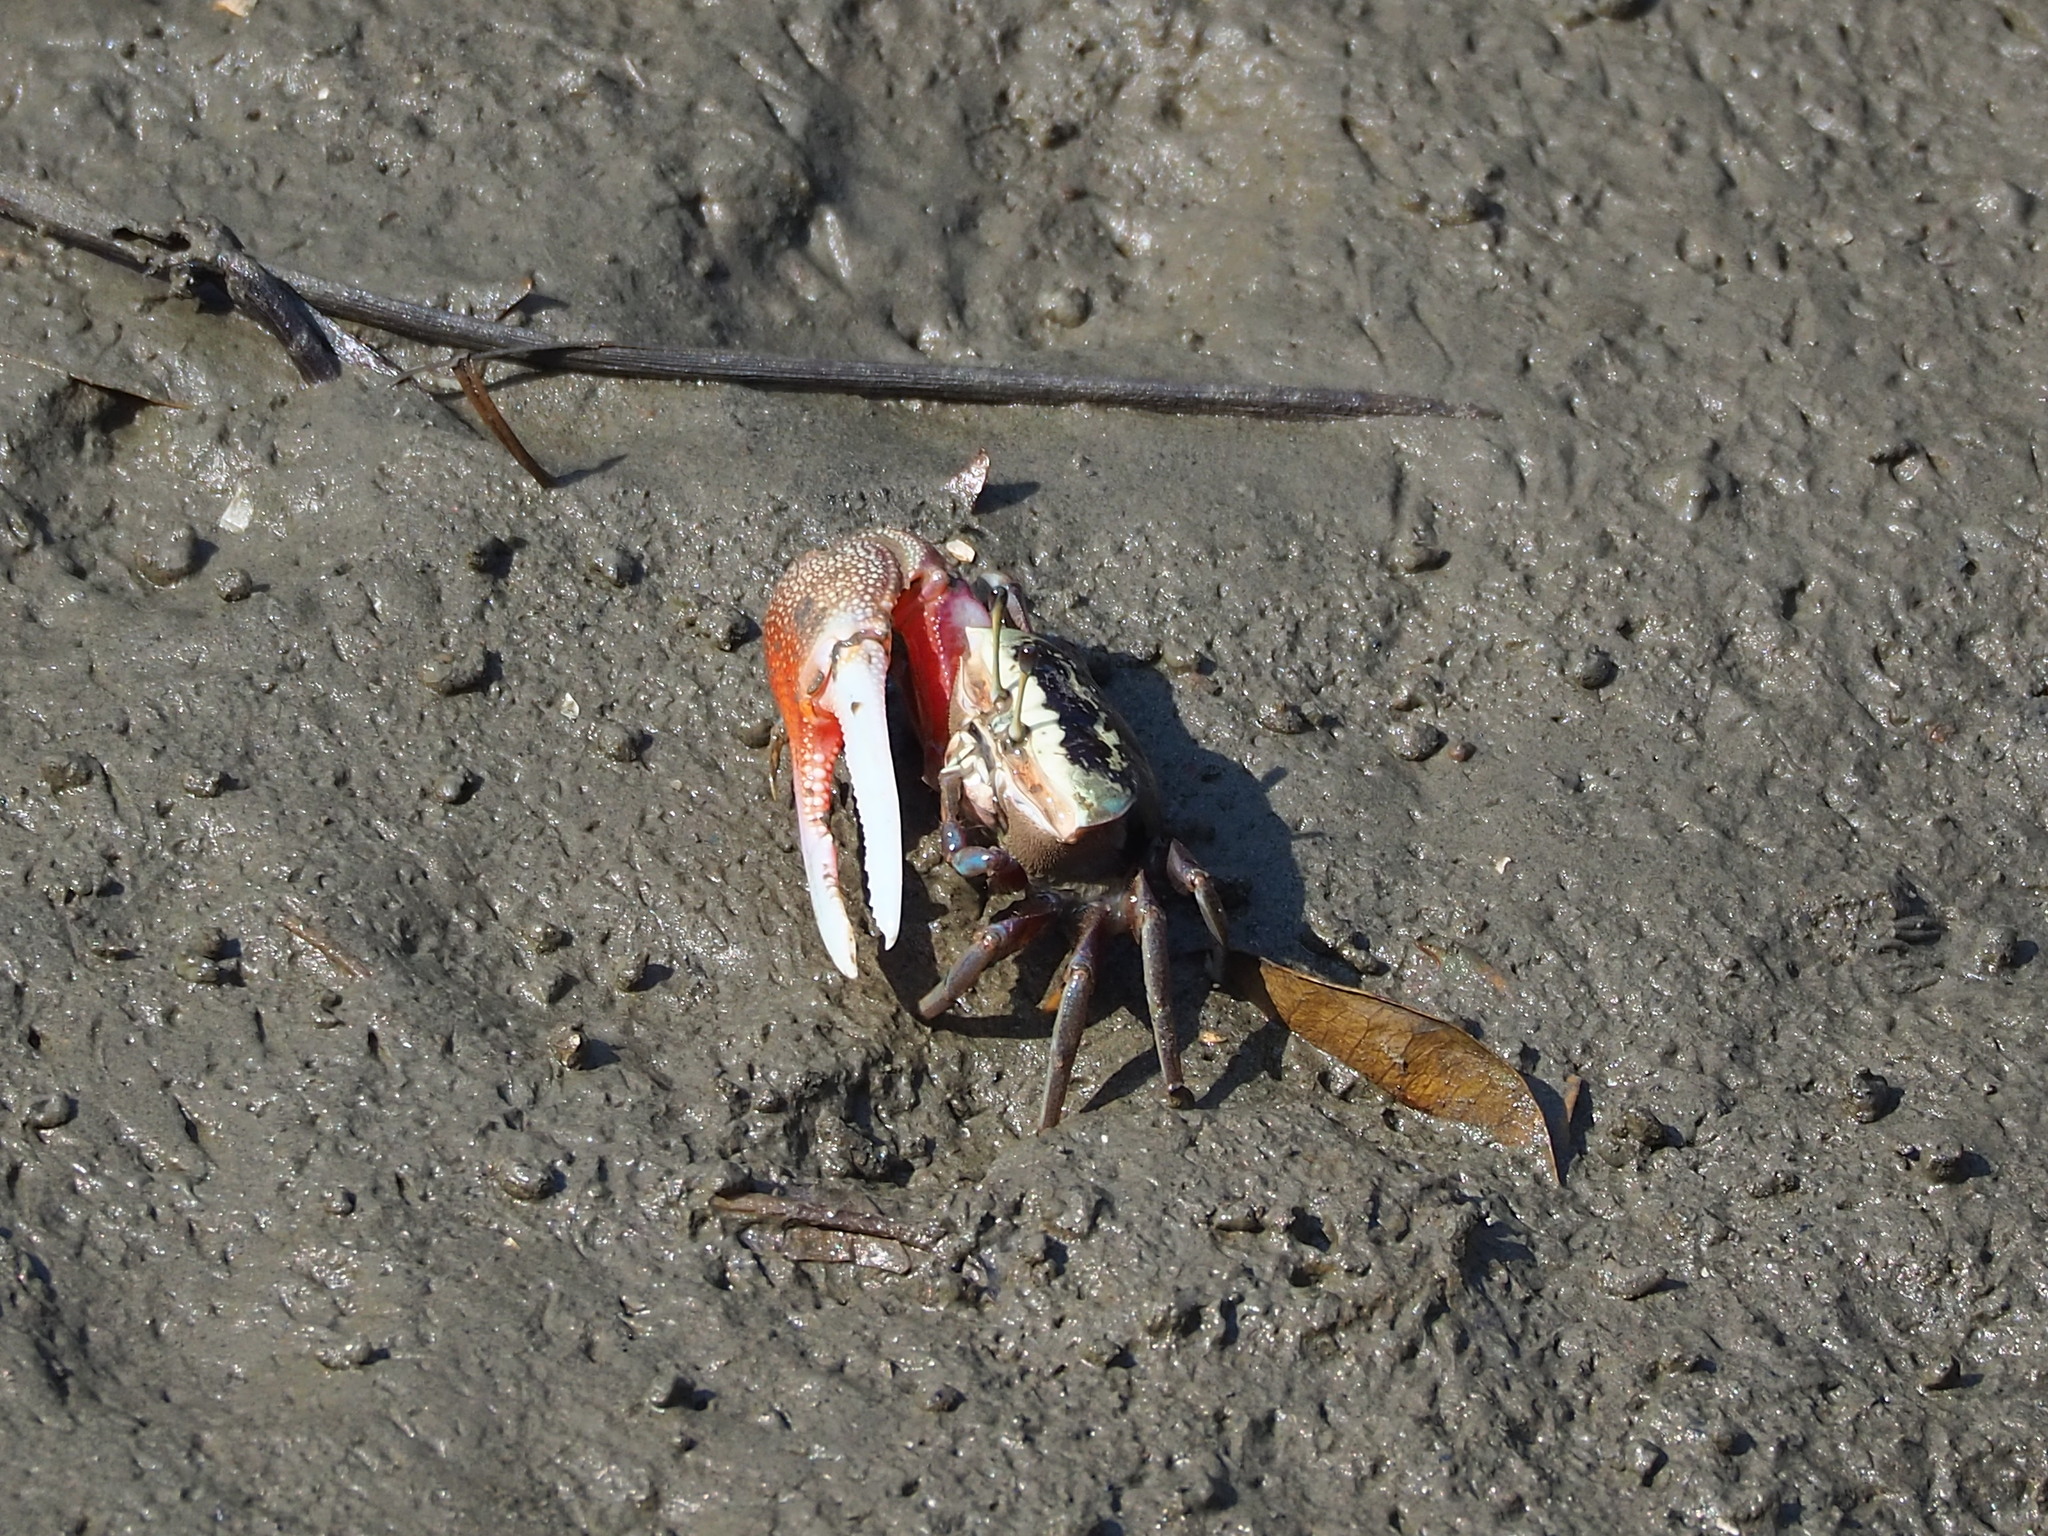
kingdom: Animalia
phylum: Arthropoda
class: Malacostraca
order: Decapoda
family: Ocypodidae
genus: Tubuca
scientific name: Tubuca arcuata
